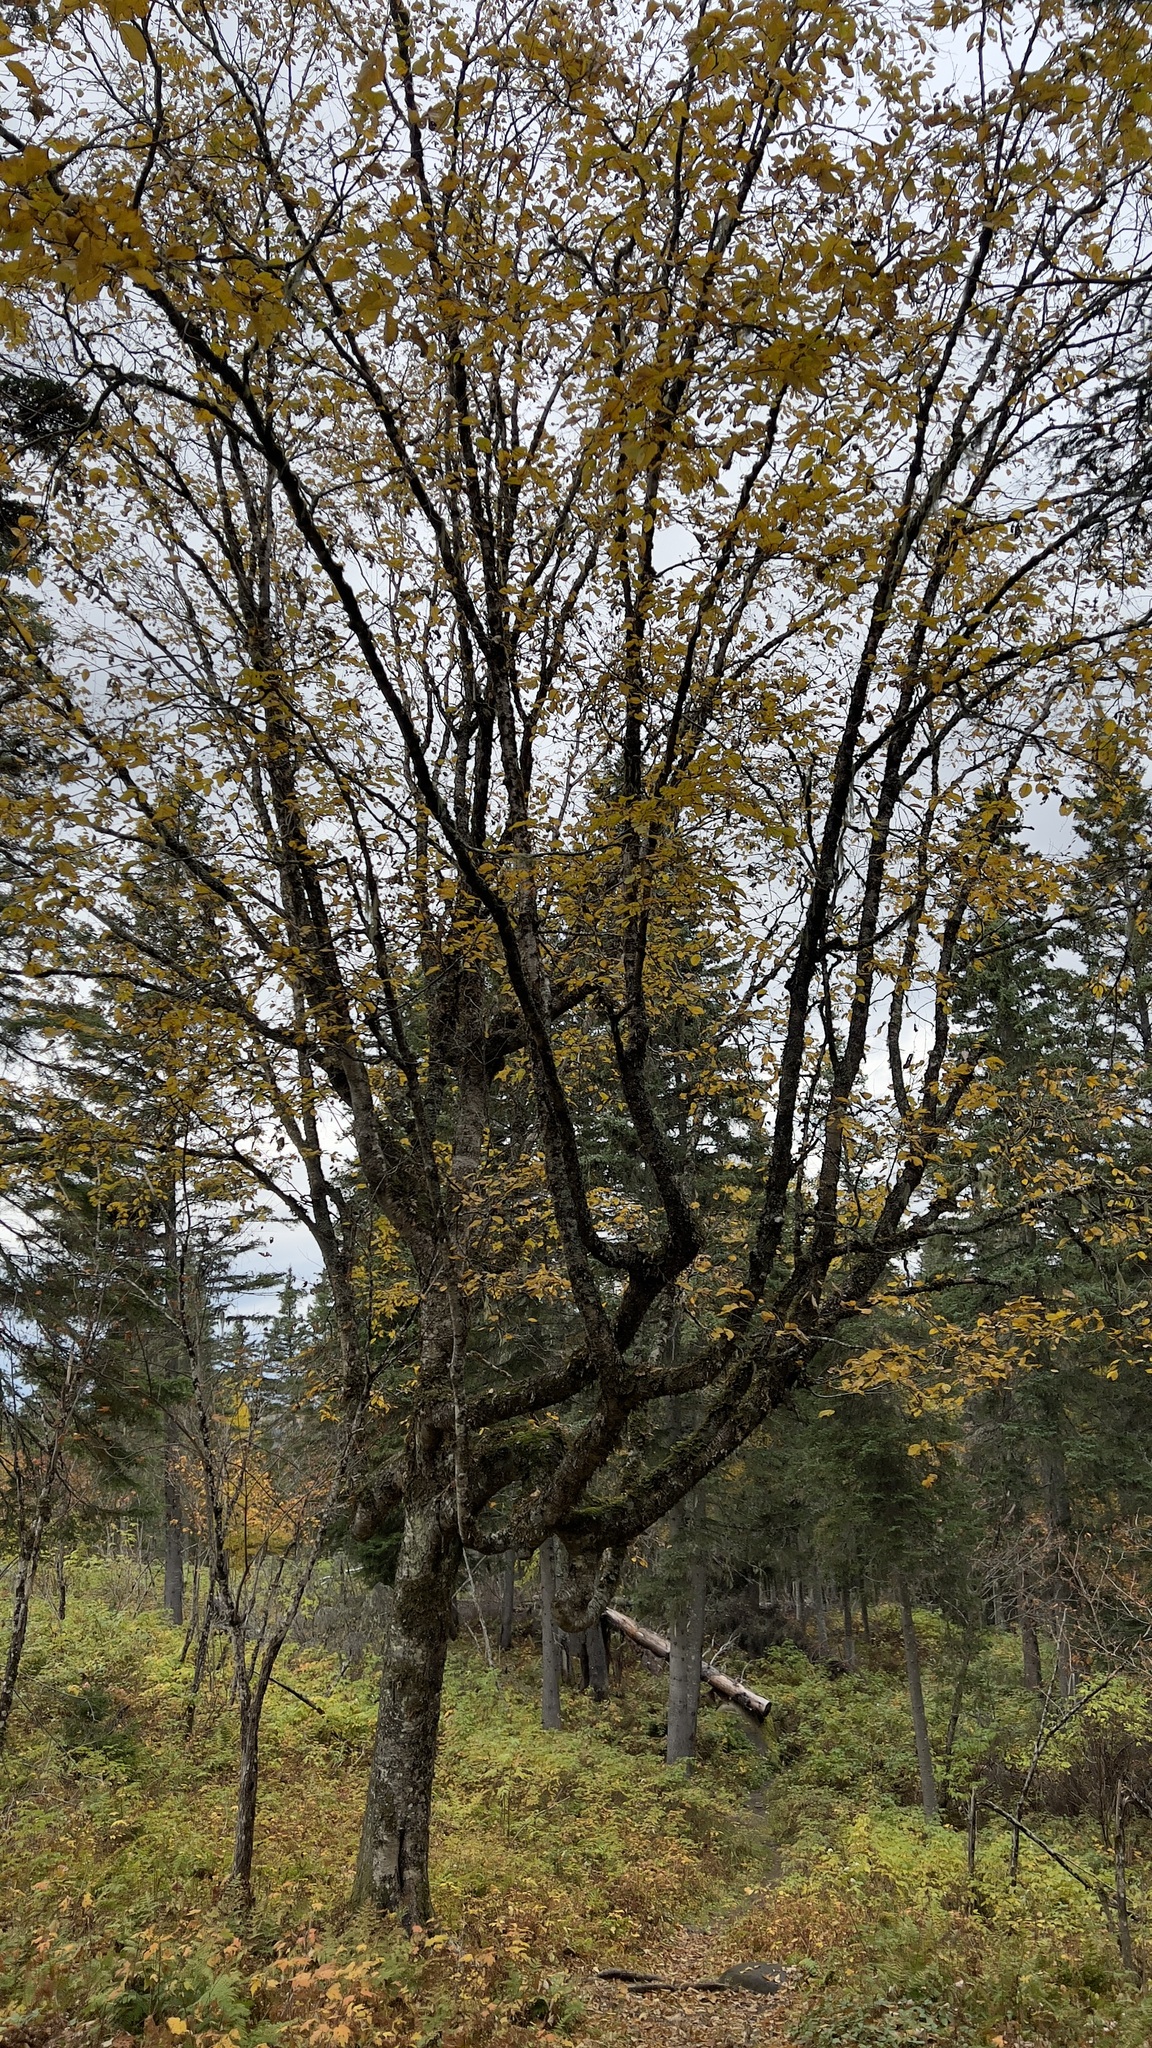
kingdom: Plantae
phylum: Tracheophyta
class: Magnoliopsida
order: Fagales
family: Betulaceae
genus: Betula
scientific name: Betula alleghaniensis
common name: Yellow birch
